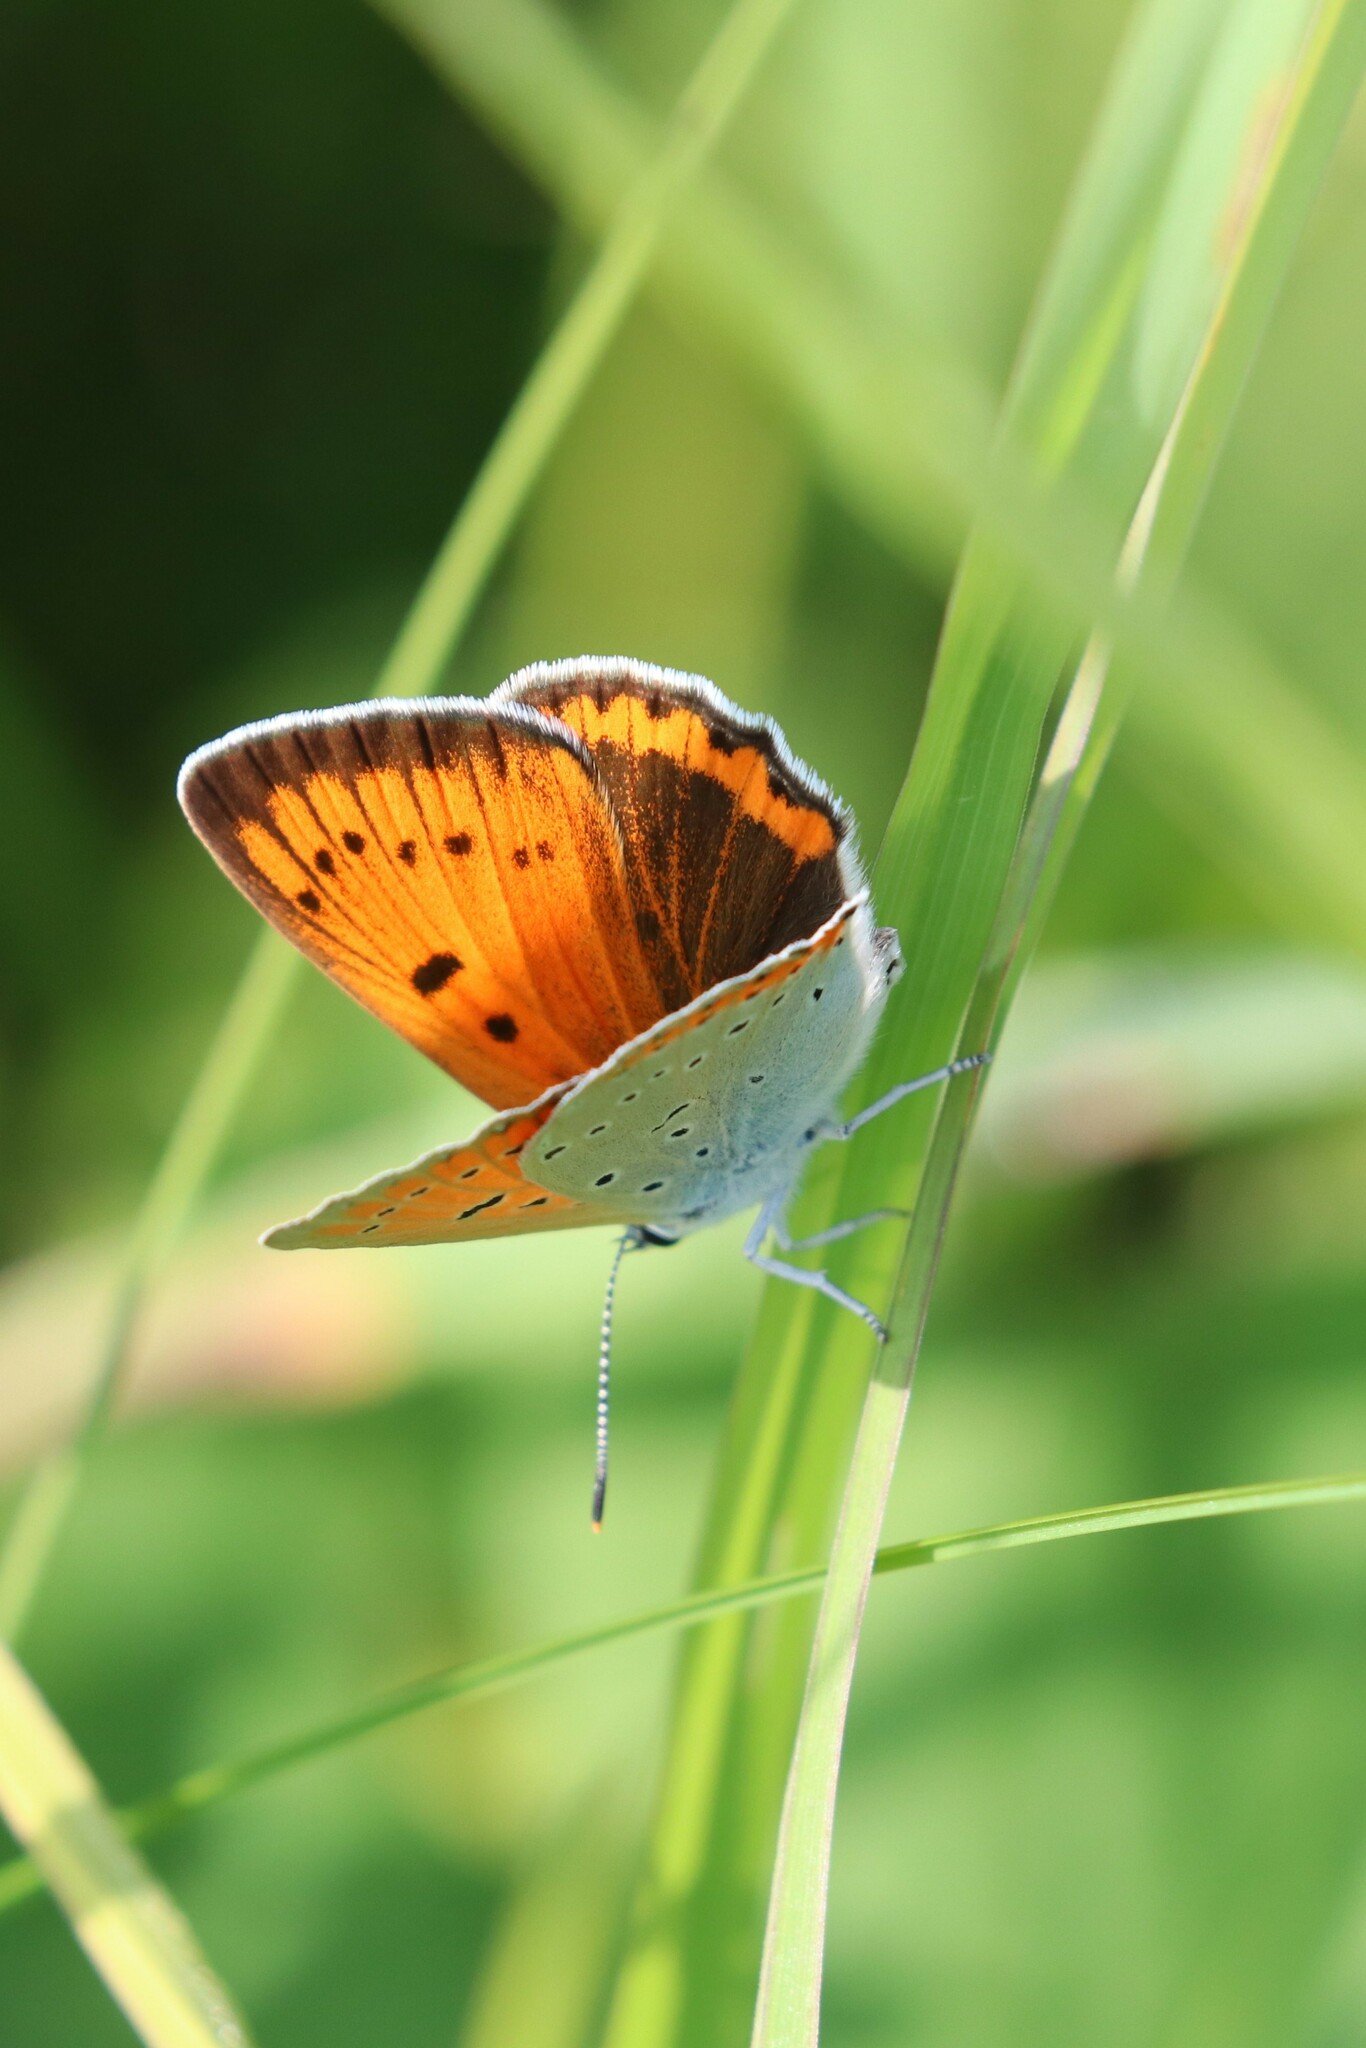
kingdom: Animalia
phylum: Arthropoda
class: Insecta
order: Lepidoptera
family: Lycaenidae
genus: Lycaena
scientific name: Lycaena dispar
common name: Large copper
